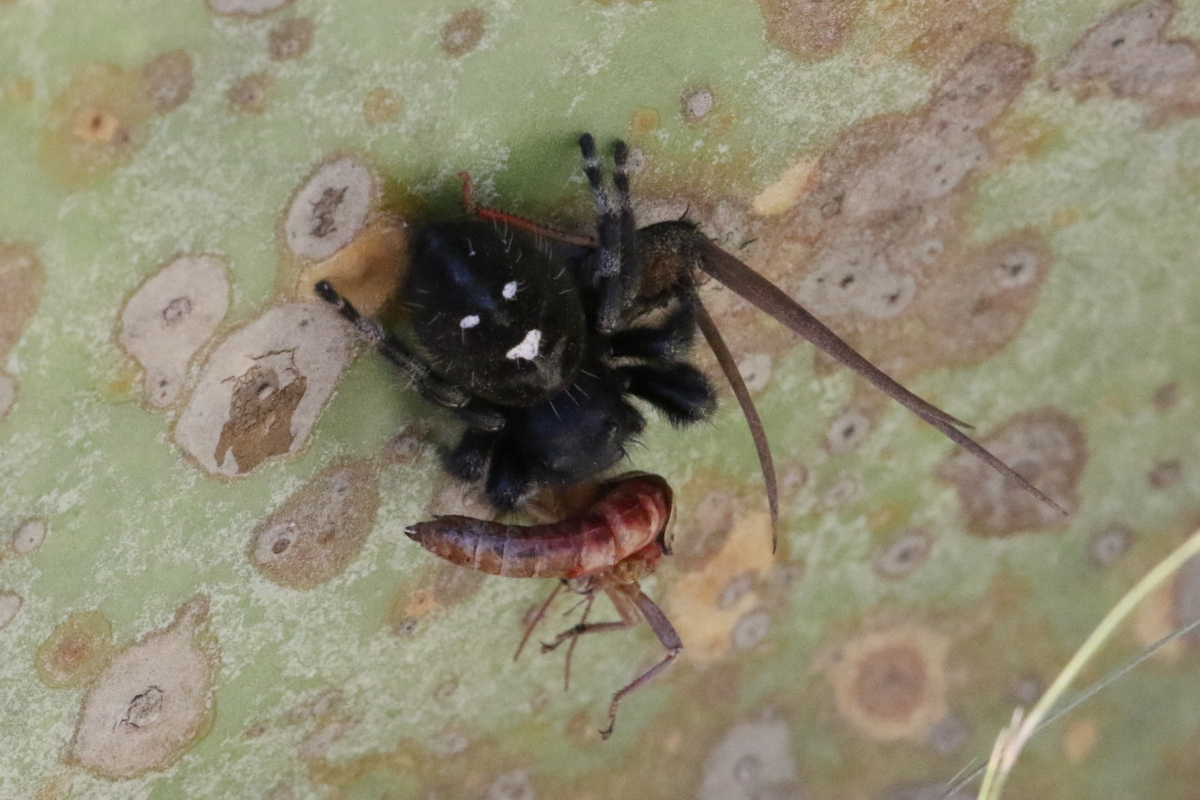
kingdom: Animalia
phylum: Arthropoda
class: Arachnida
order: Araneae
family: Salticidae
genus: Phidippus
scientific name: Phidippus audax
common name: Bold jumper
